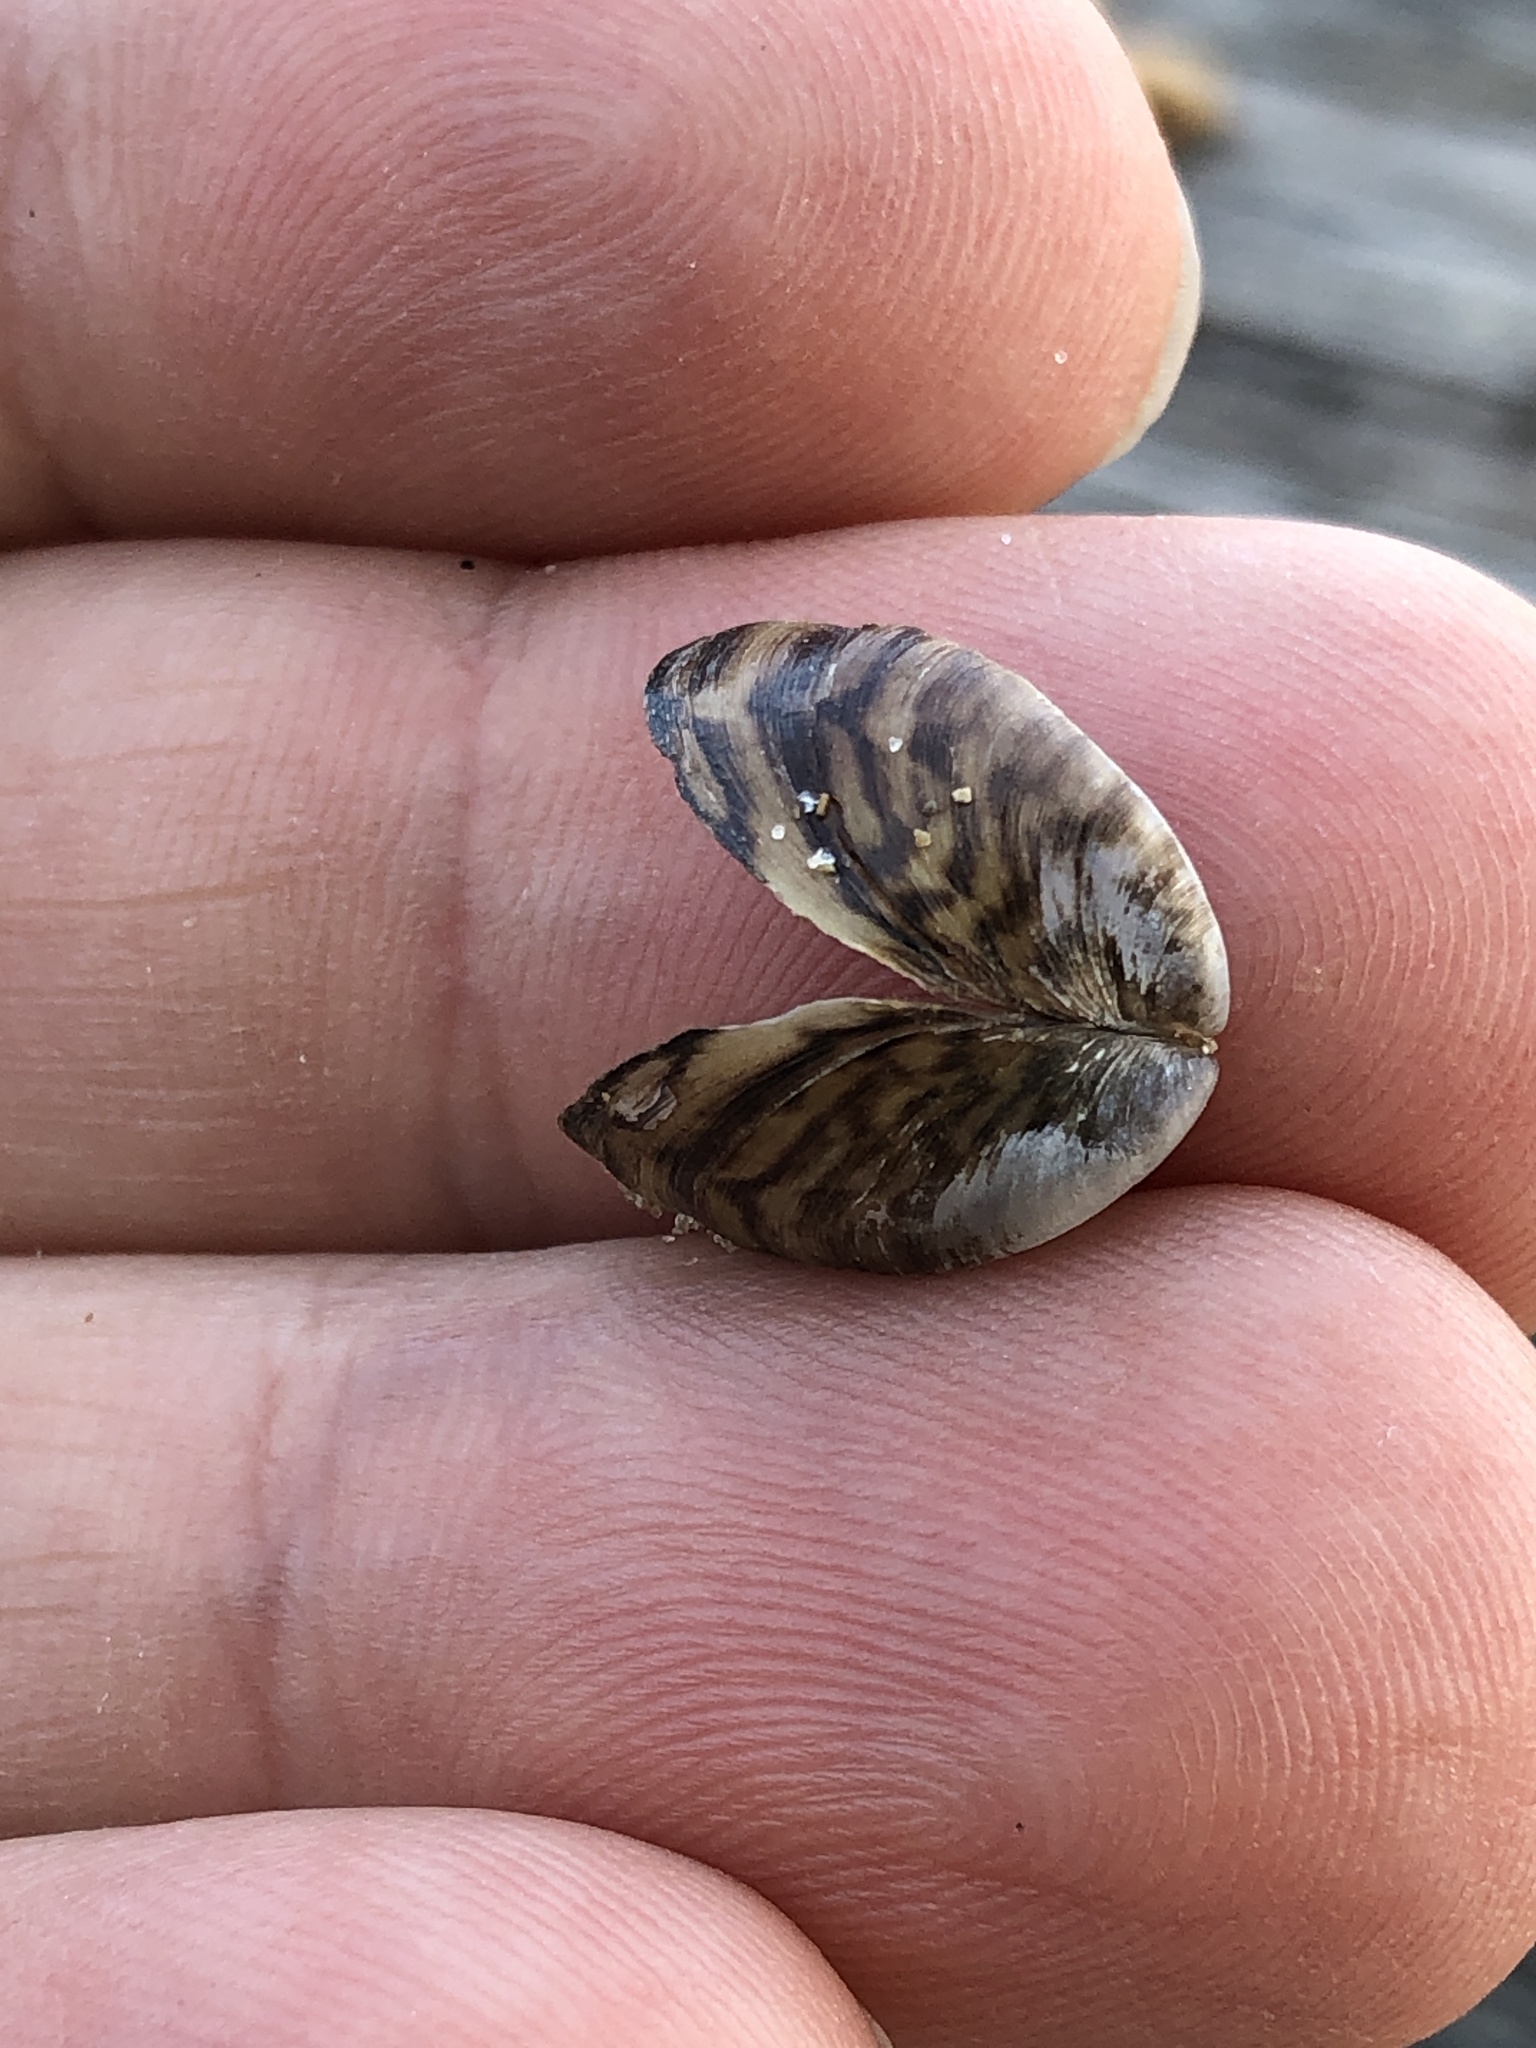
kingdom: Animalia
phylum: Mollusca
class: Bivalvia
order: Myida
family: Dreissenidae
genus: Dreissena
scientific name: Dreissena polymorpha
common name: Zebra mussel
